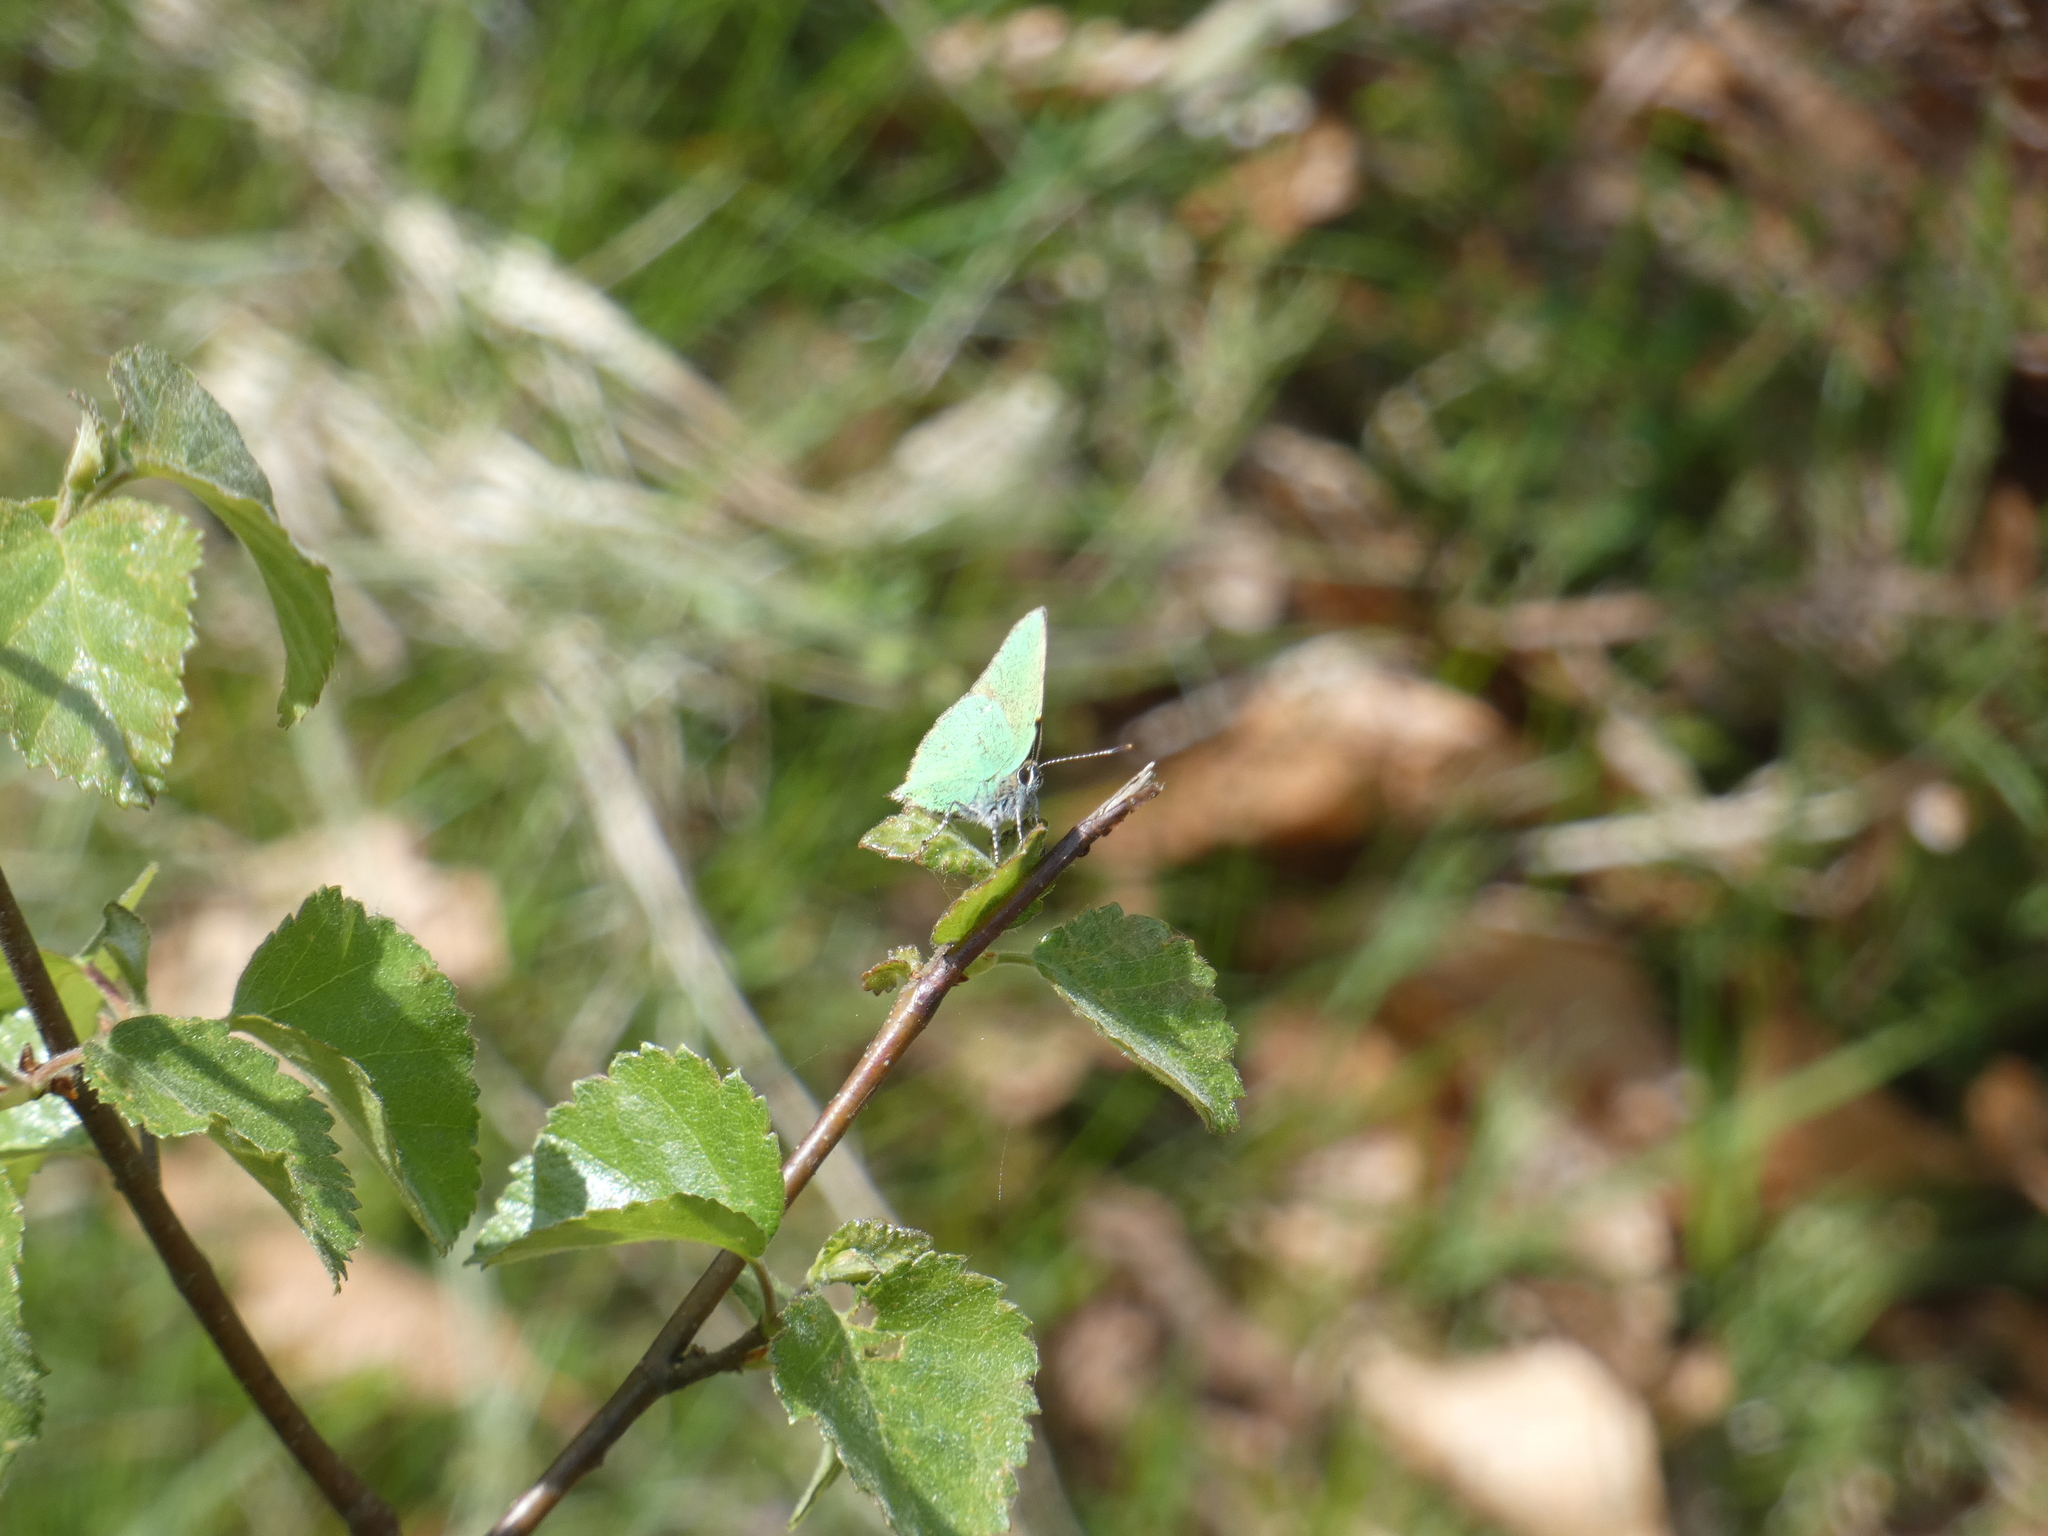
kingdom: Animalia
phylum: Arthropoda
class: Insecta
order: Lepidoptera
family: Lycaenidae
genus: Callophrys
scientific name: Callophrys rubi
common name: Green hairstreak
